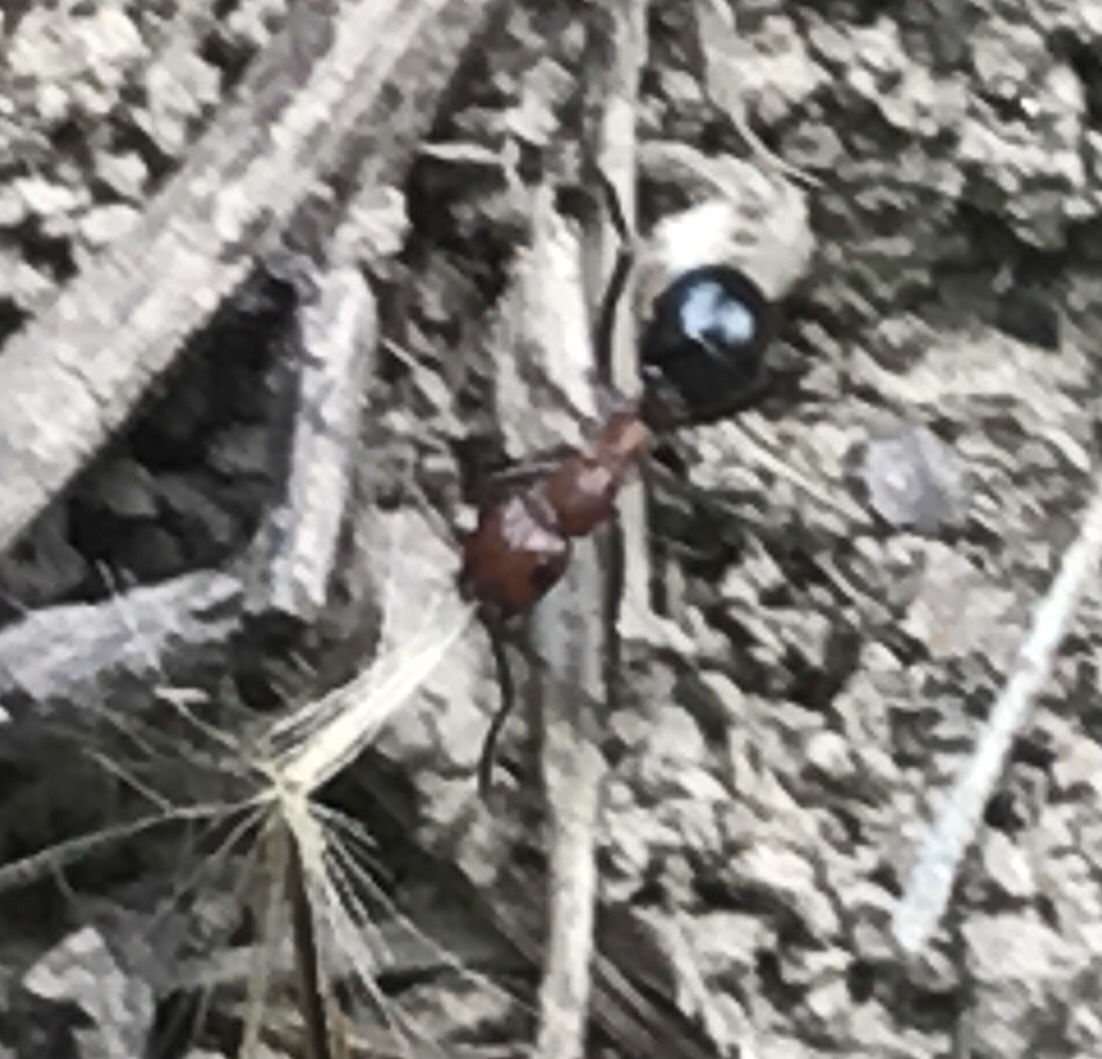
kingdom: Animalia
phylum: Arthropoda
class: Insecta
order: Hymenoptera
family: Formicidae
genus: Formica
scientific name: Formica exsectoides
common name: Allegheny mound ant
